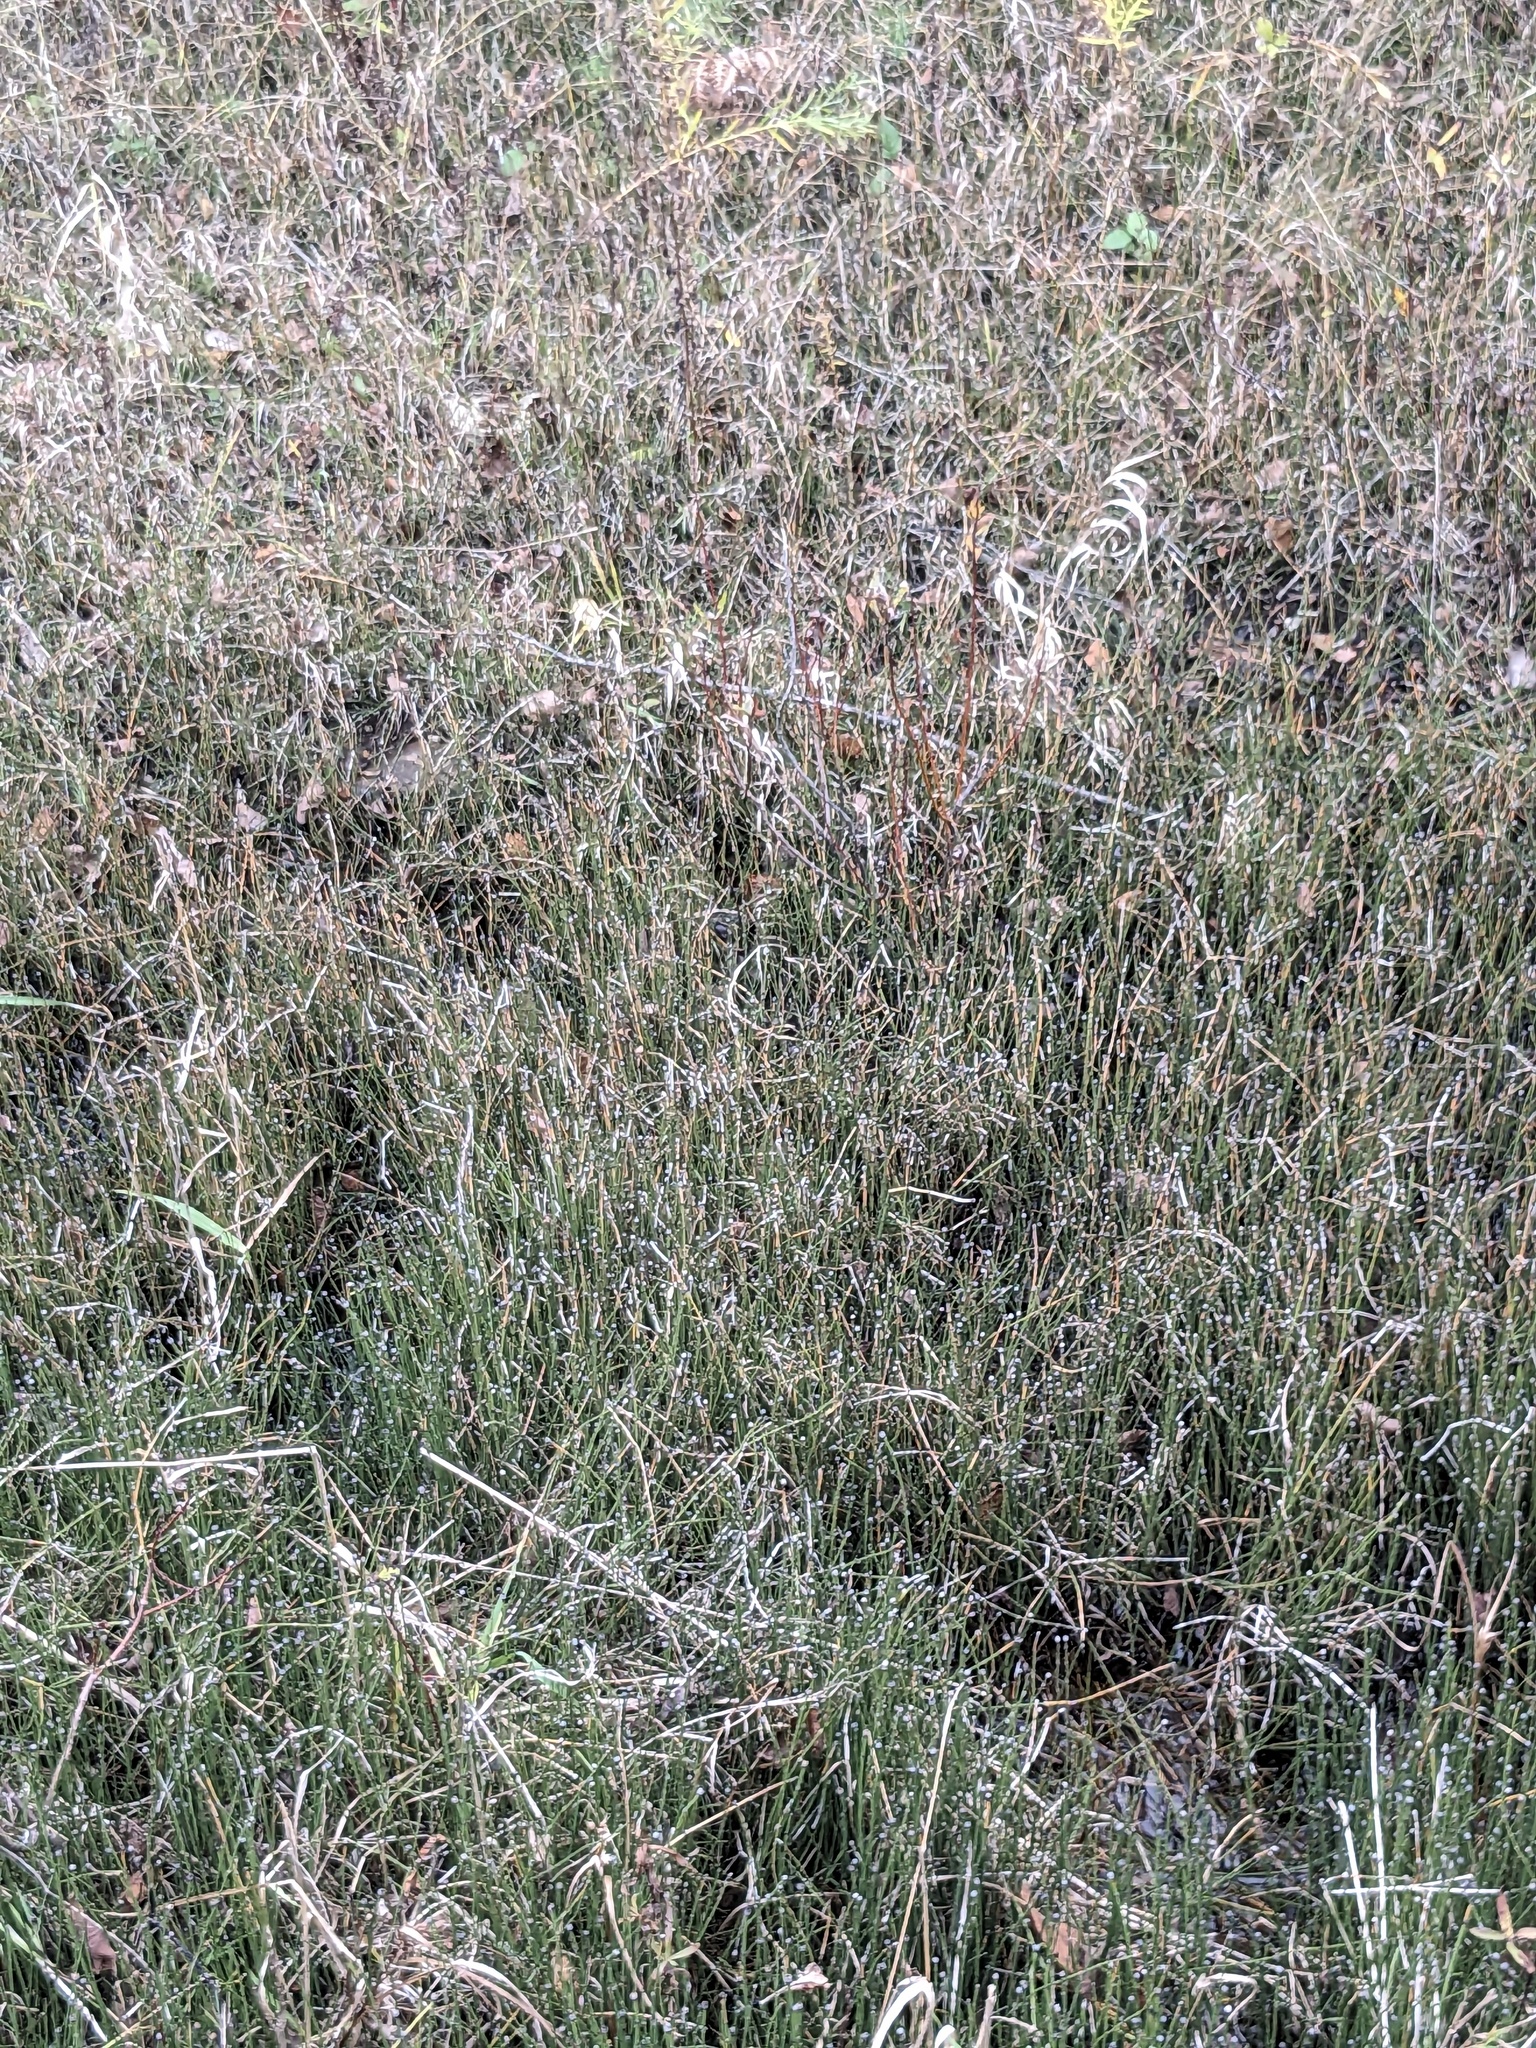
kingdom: Plantae
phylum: Tracheophyta
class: Polypodiopsida
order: Equisetales
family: Equisetaceae
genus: Equisetum
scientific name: Equisetum variegatum
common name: Variegated horsetail
